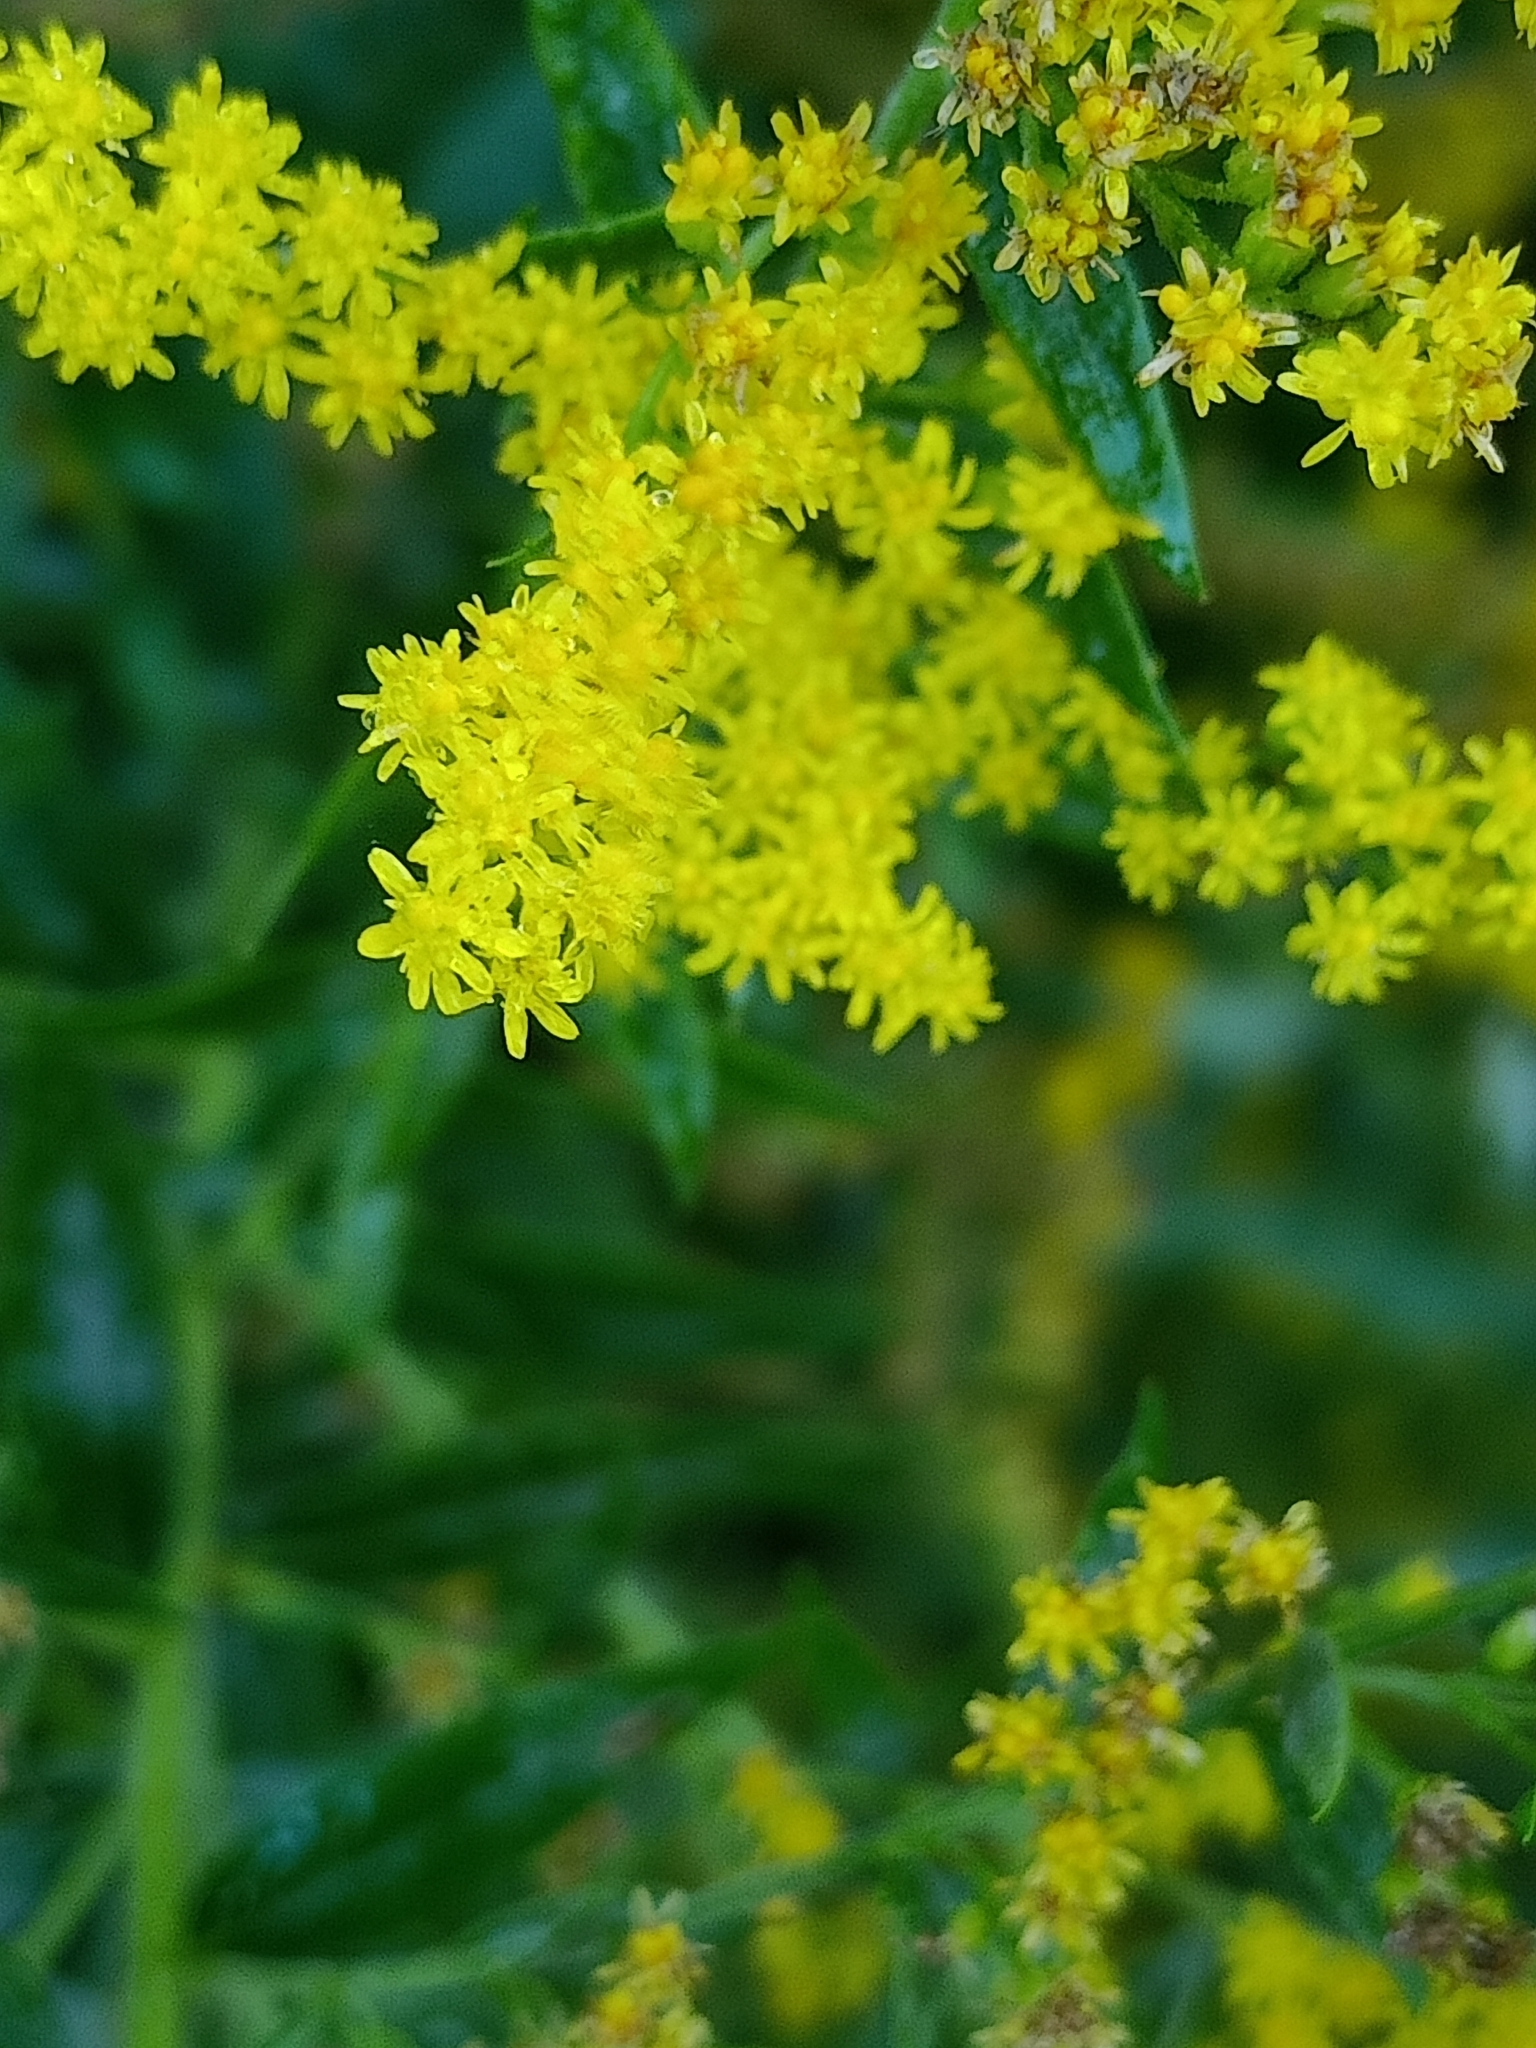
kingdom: Plantae
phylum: Tracheophyta
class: Magnoliopsida
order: Asterales
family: Asteraceae
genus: Solidago
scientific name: Solidago canadensis
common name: Canada goldenrod
